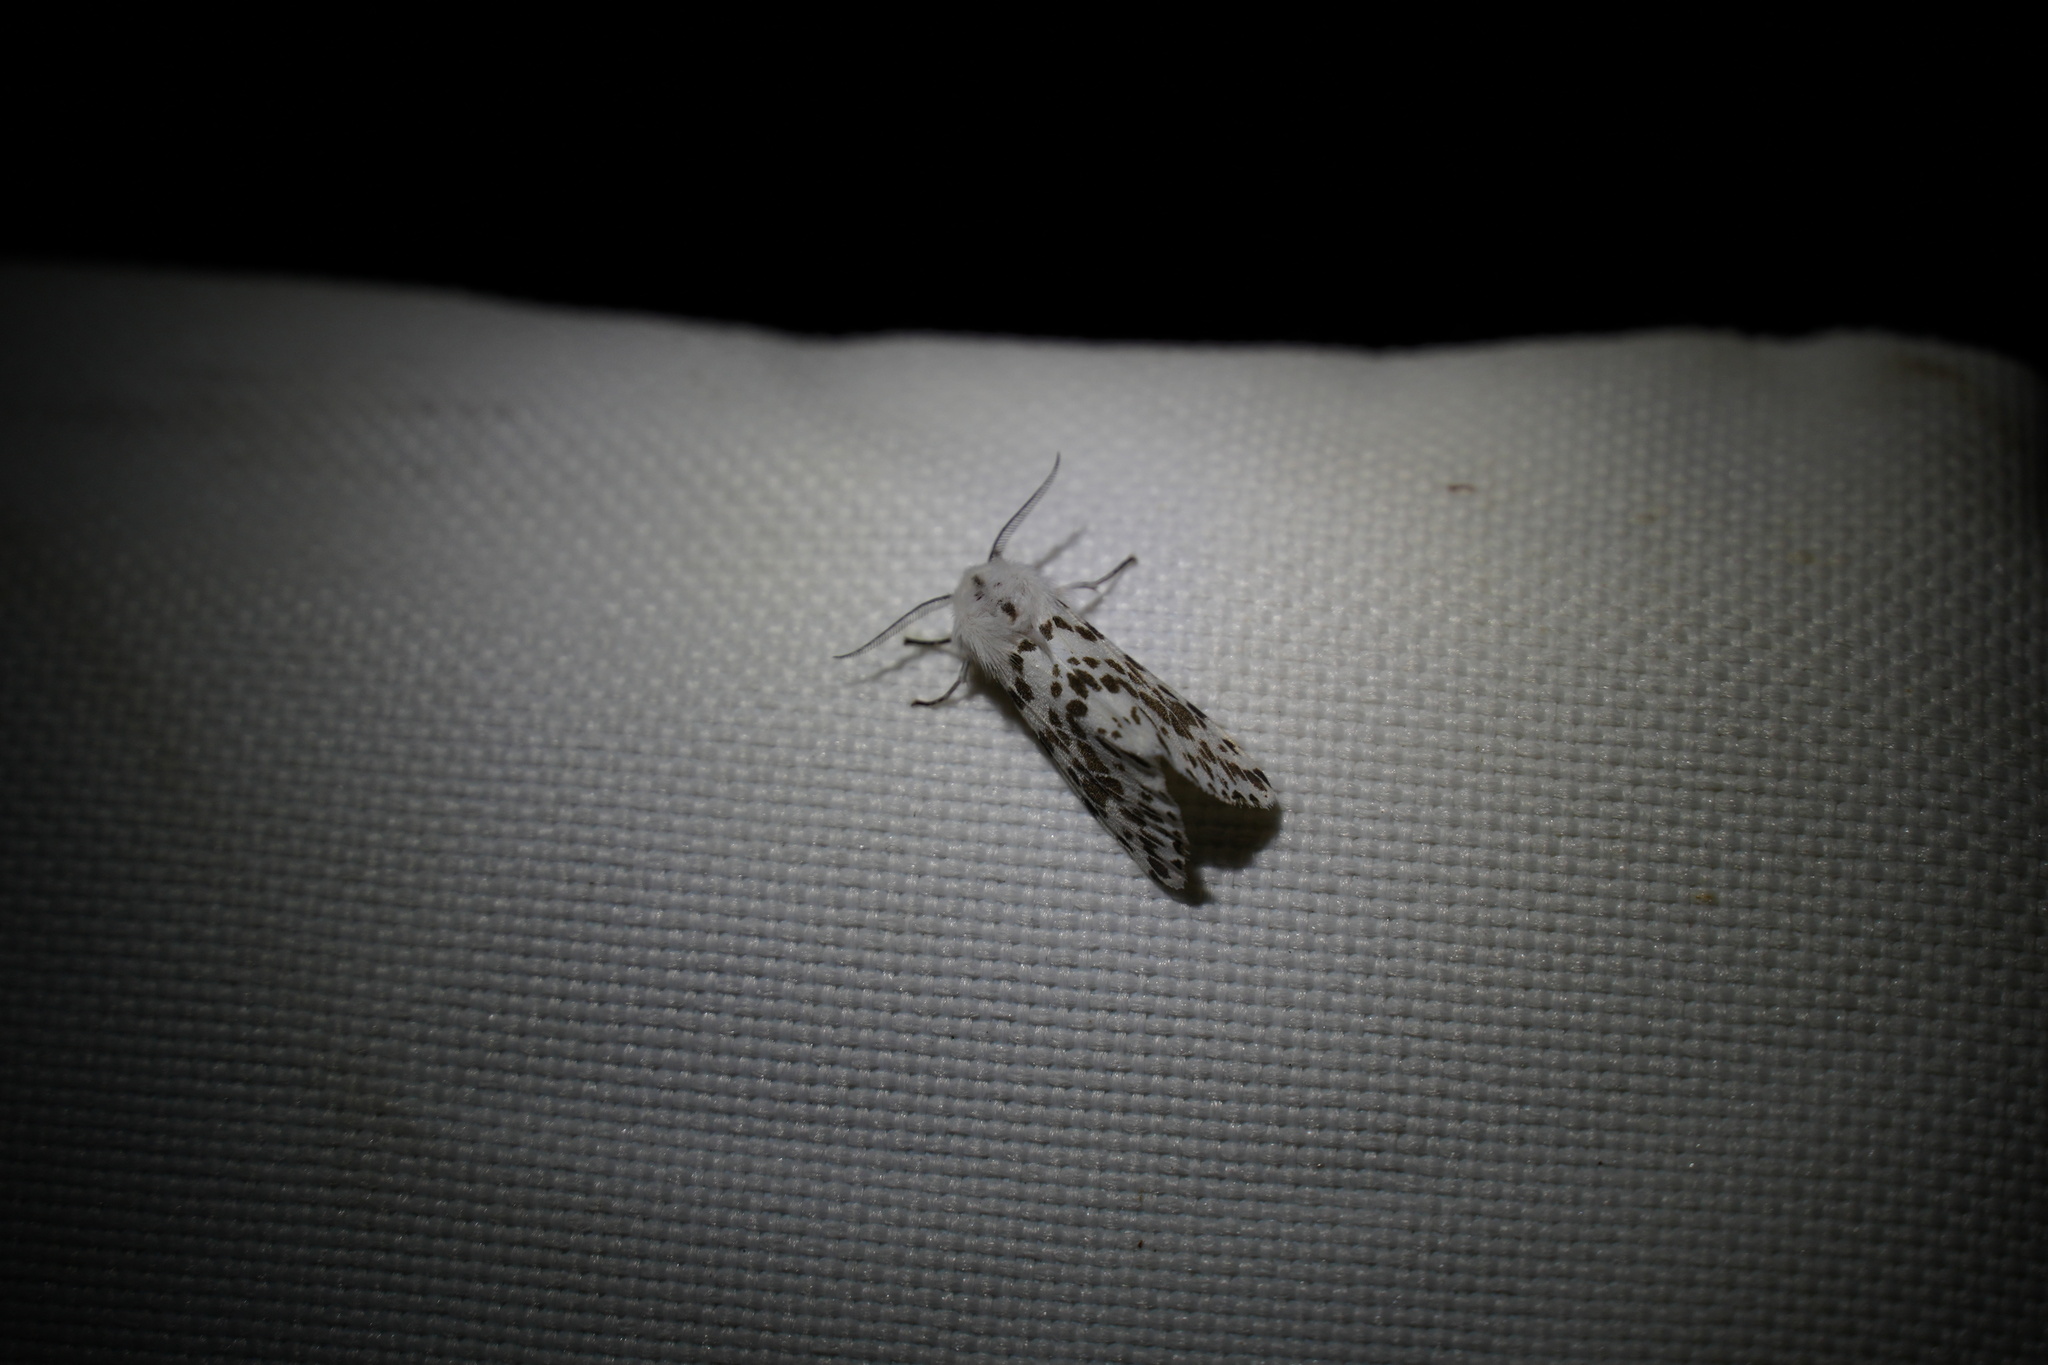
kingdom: Animalia
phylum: Arthropoda
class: Insecta
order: Lepidoptera
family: Erebidae
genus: Hyphantria
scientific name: Hyphantria cunea
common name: American white moth
